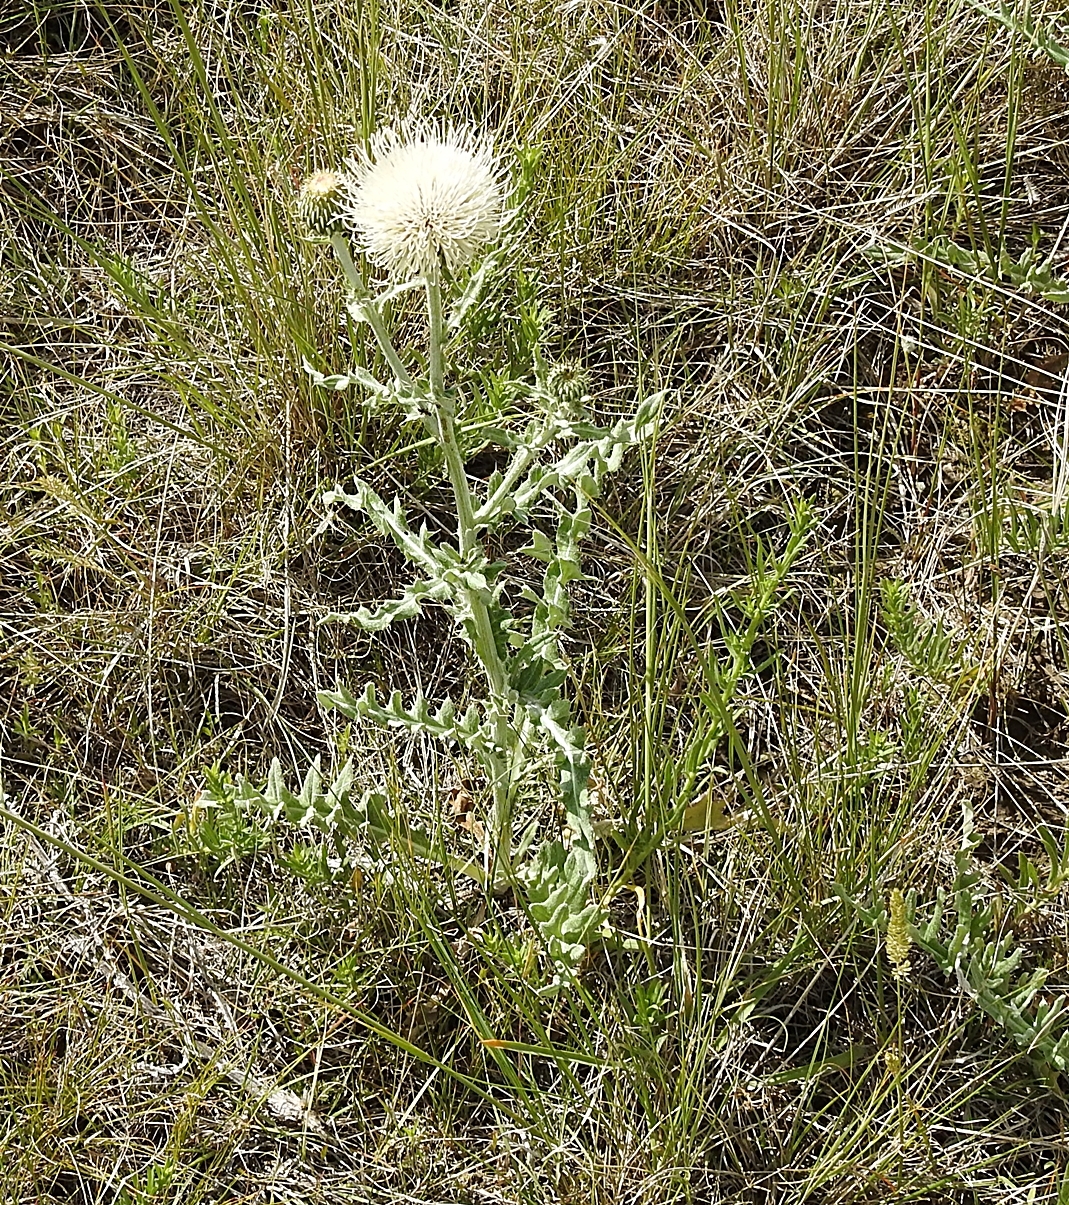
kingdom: Plantae
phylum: Tracheophyta
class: Magnoliopsida
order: Asterales
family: Asteraceae
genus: Cirsium
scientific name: Cirsium canescens
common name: Prairie thistle
